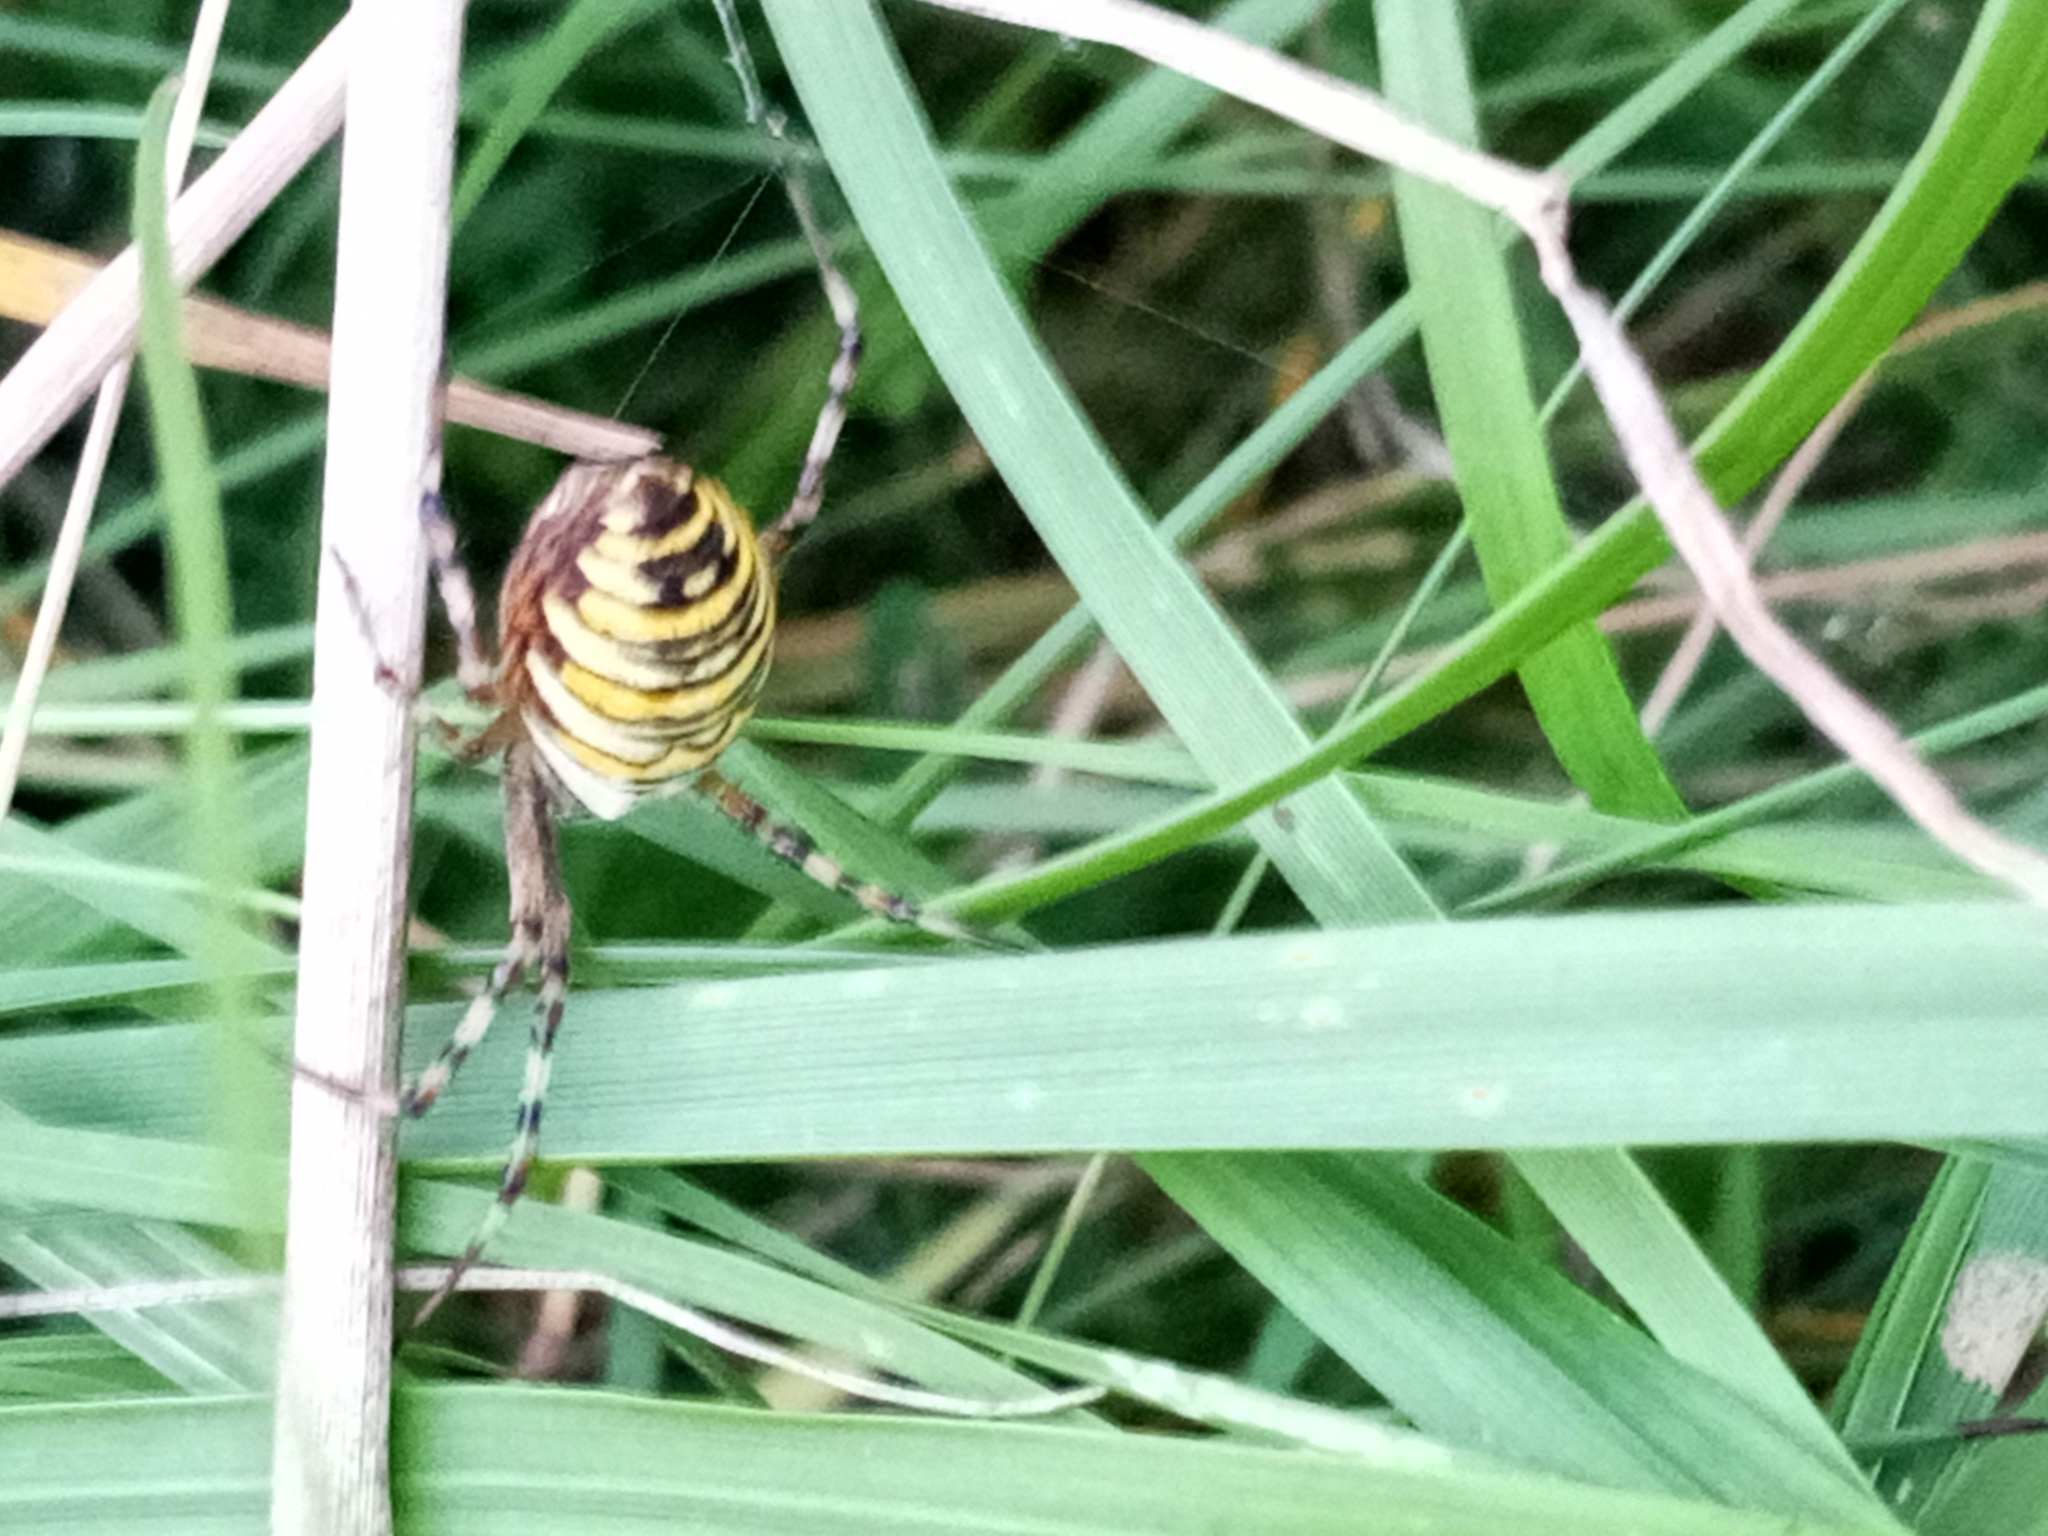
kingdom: Animalia
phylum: Arthropoda
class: Arachnida
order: Araneae
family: Araneidae
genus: Argiope
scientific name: Argiope bruennichi
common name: Wasp spider
